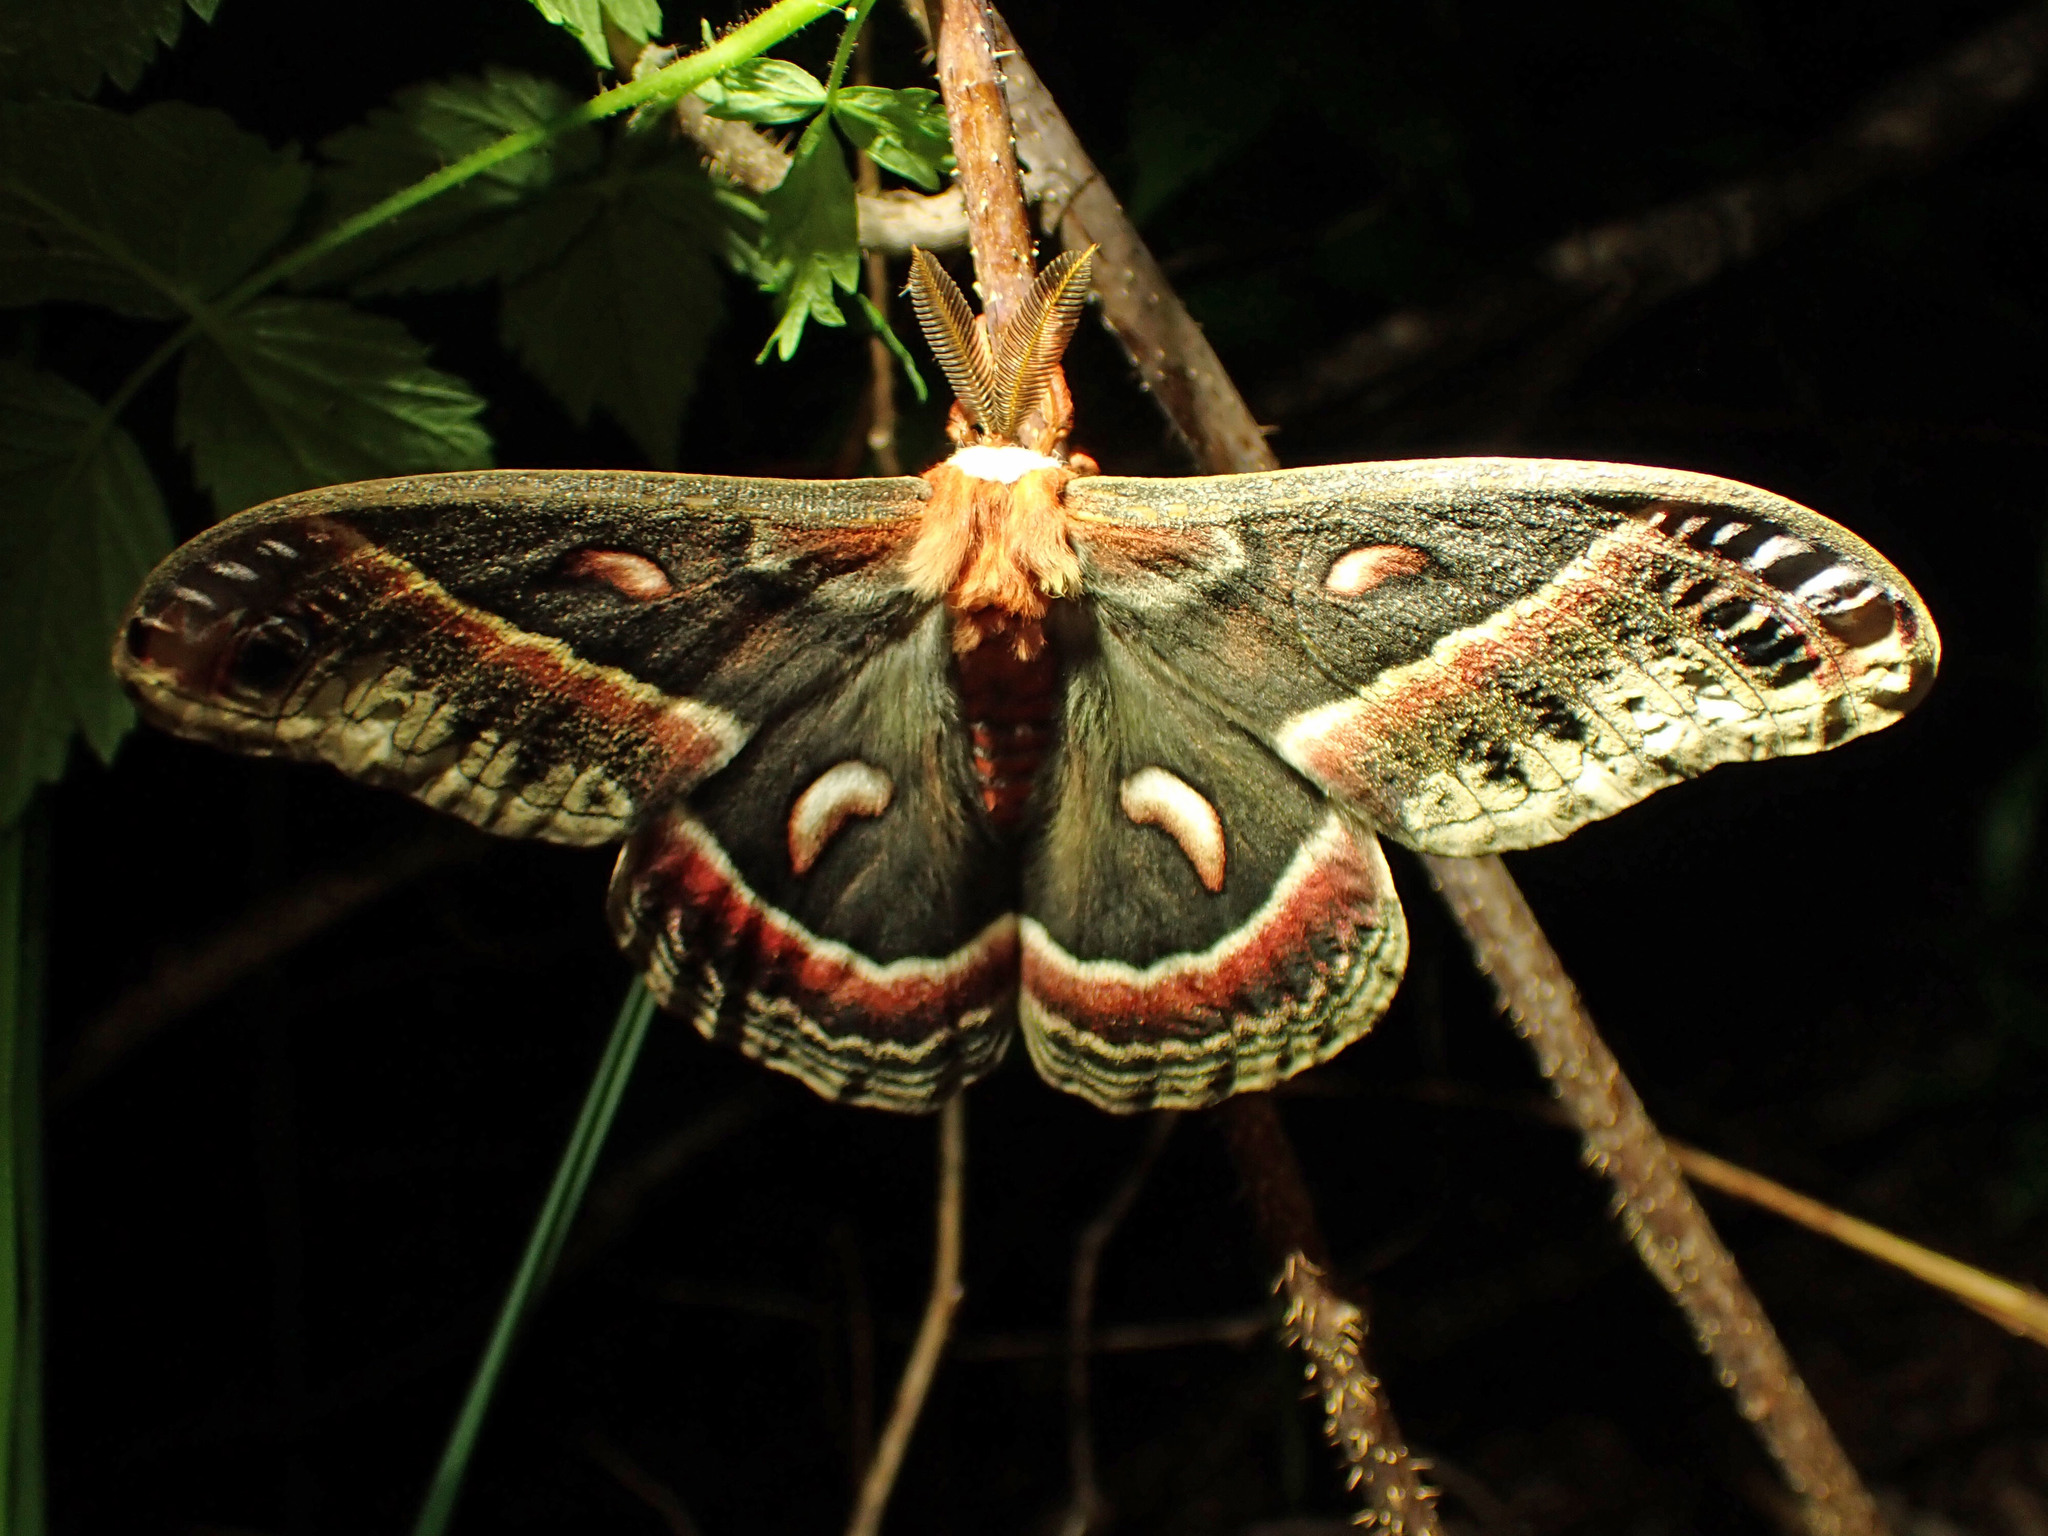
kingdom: Animalia
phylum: Arthropoda
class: Insecta
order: Lepidoptera
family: Saturniidae
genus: Hyalophora
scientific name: Hyalophora cecropia
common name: Cecropia silkmoth
